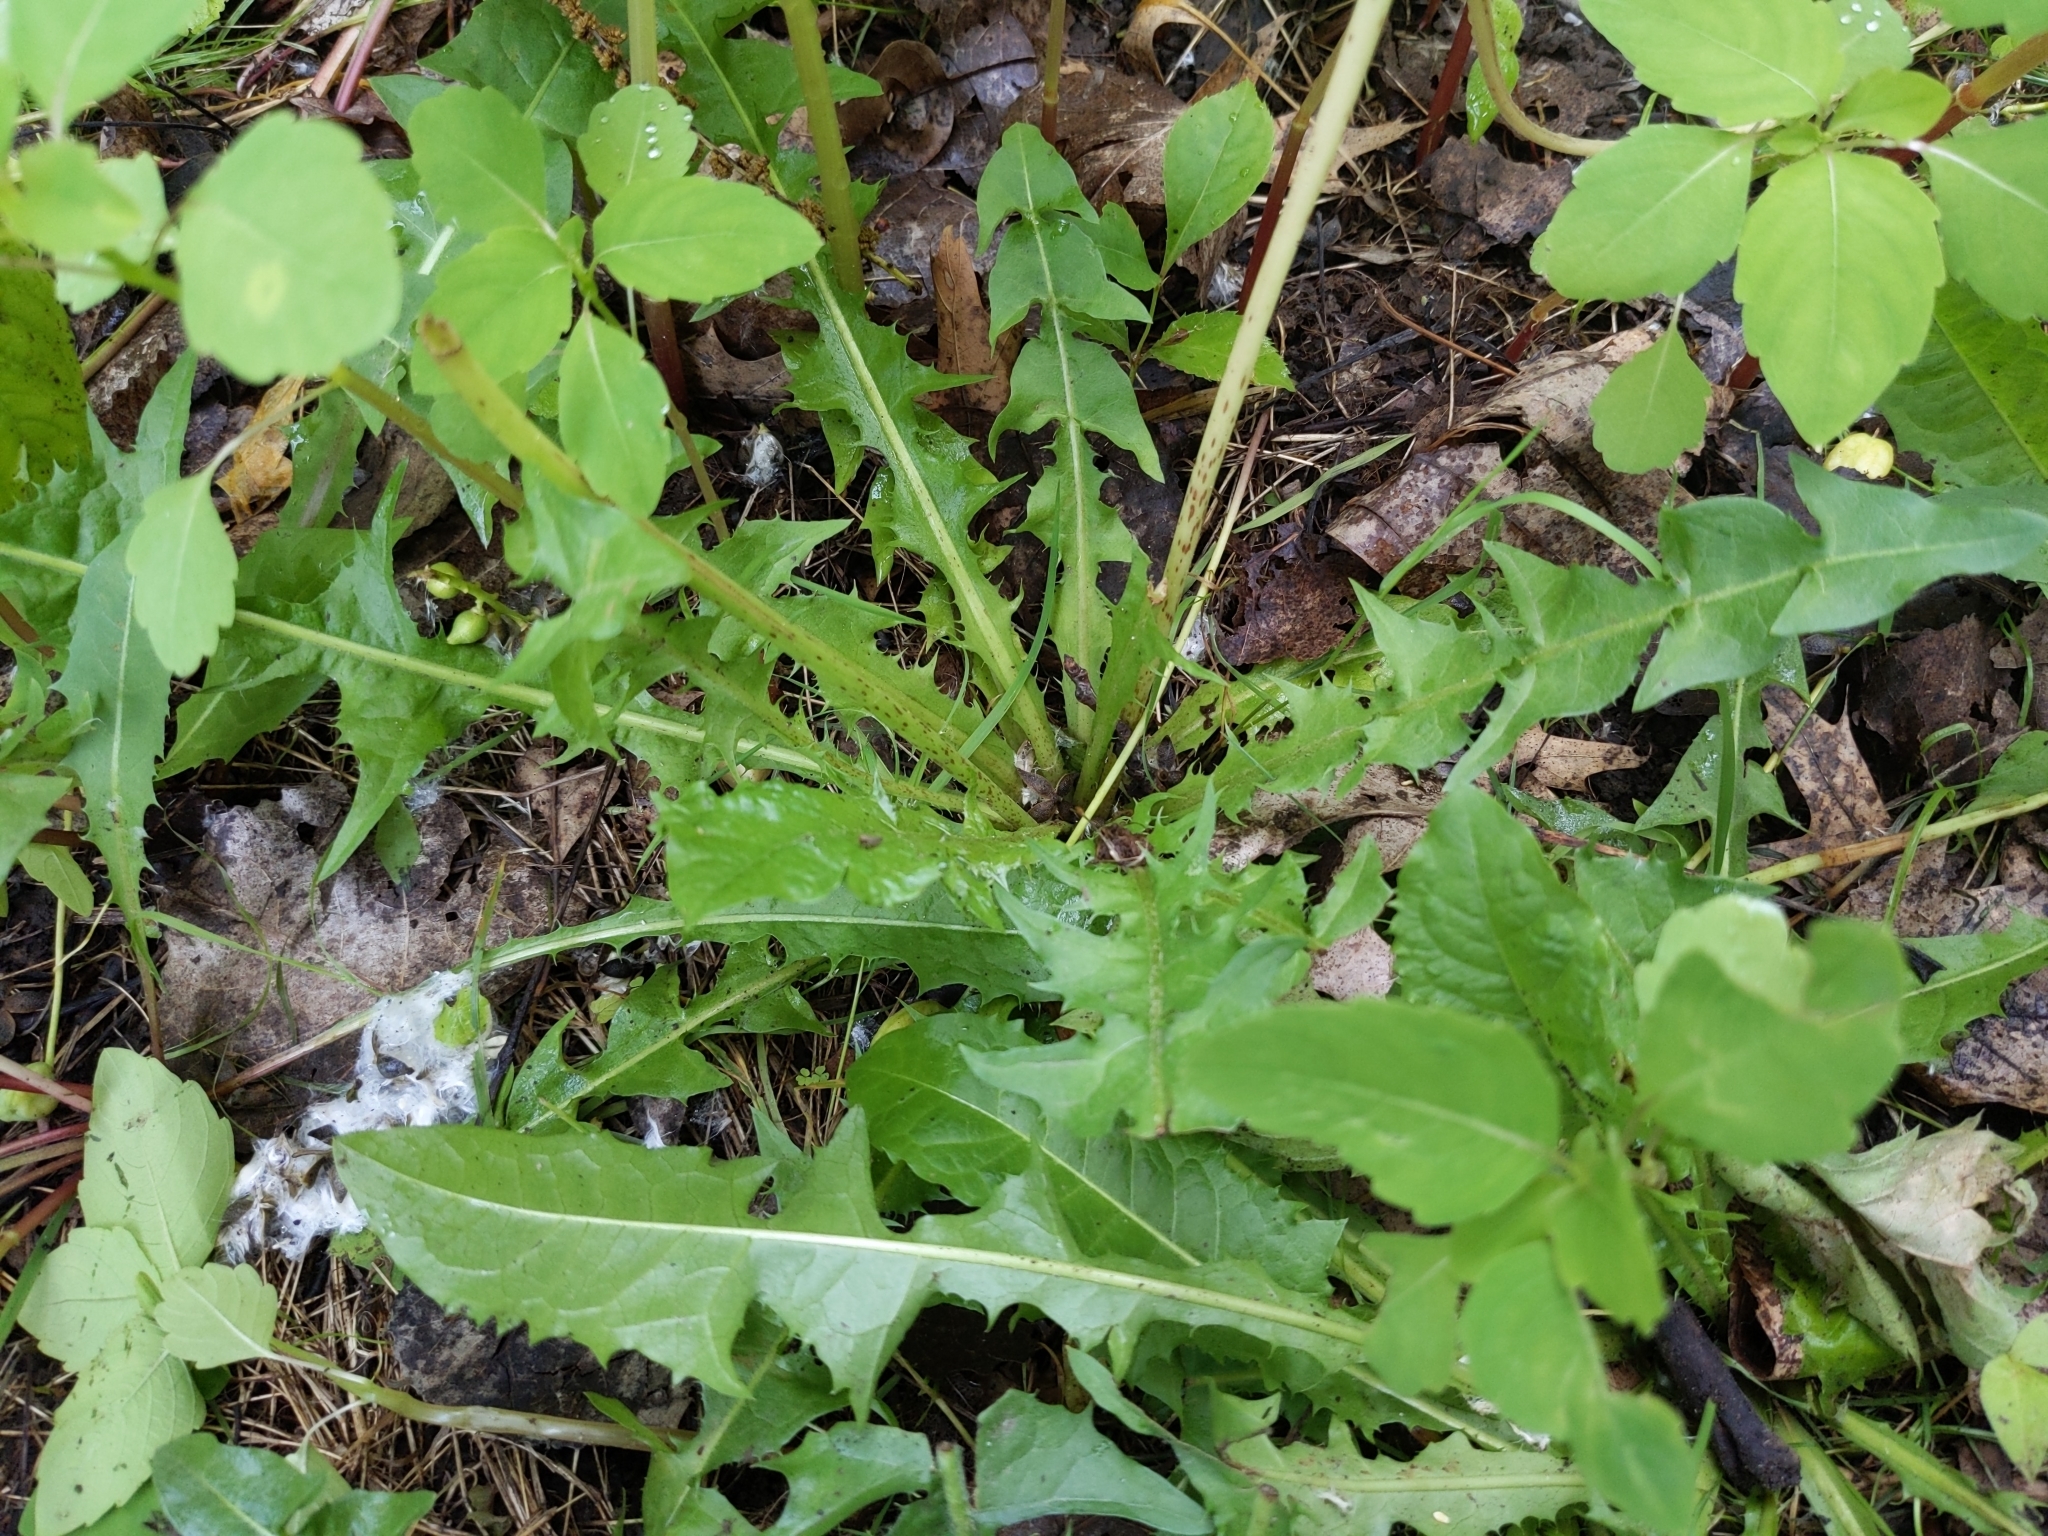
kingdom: Plantae
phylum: Tracheophyta
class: Magnoliopsida
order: Asterales
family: Asteraceae
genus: Taraxacum
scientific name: Taraxacum officinale
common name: Common dandelion
